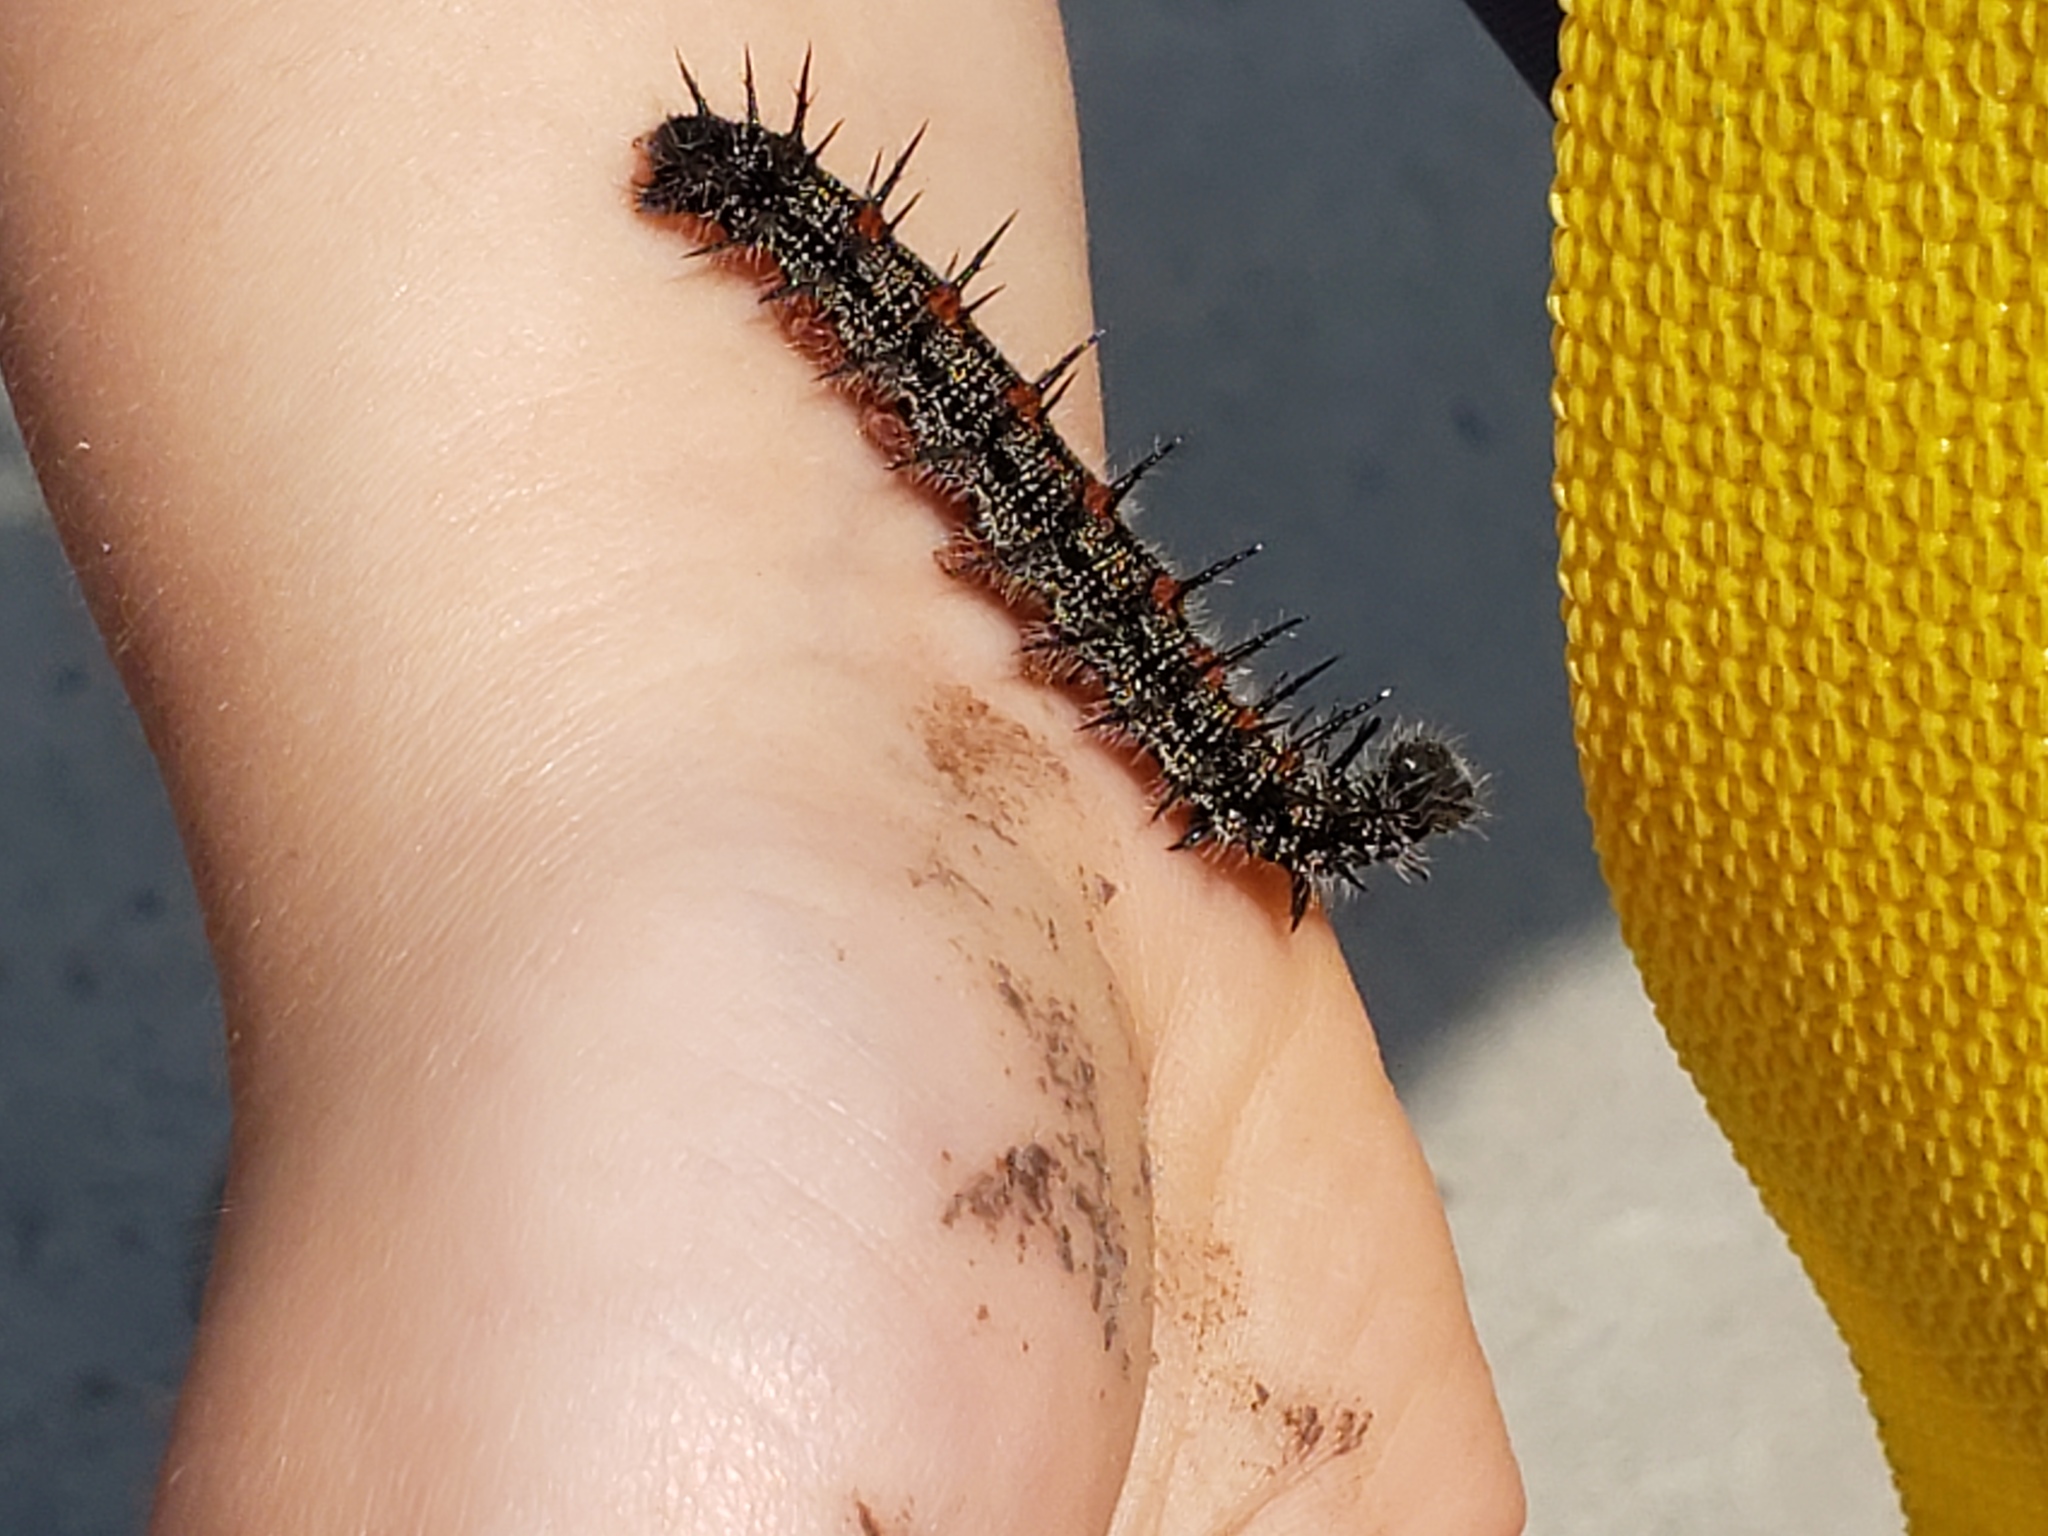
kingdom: Animalia
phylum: Arthropoda
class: Insecta
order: Lepidoptera
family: Nymphalidae
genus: Nymphalis
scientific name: Nymphalis antiopa
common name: Camberwell beauty
